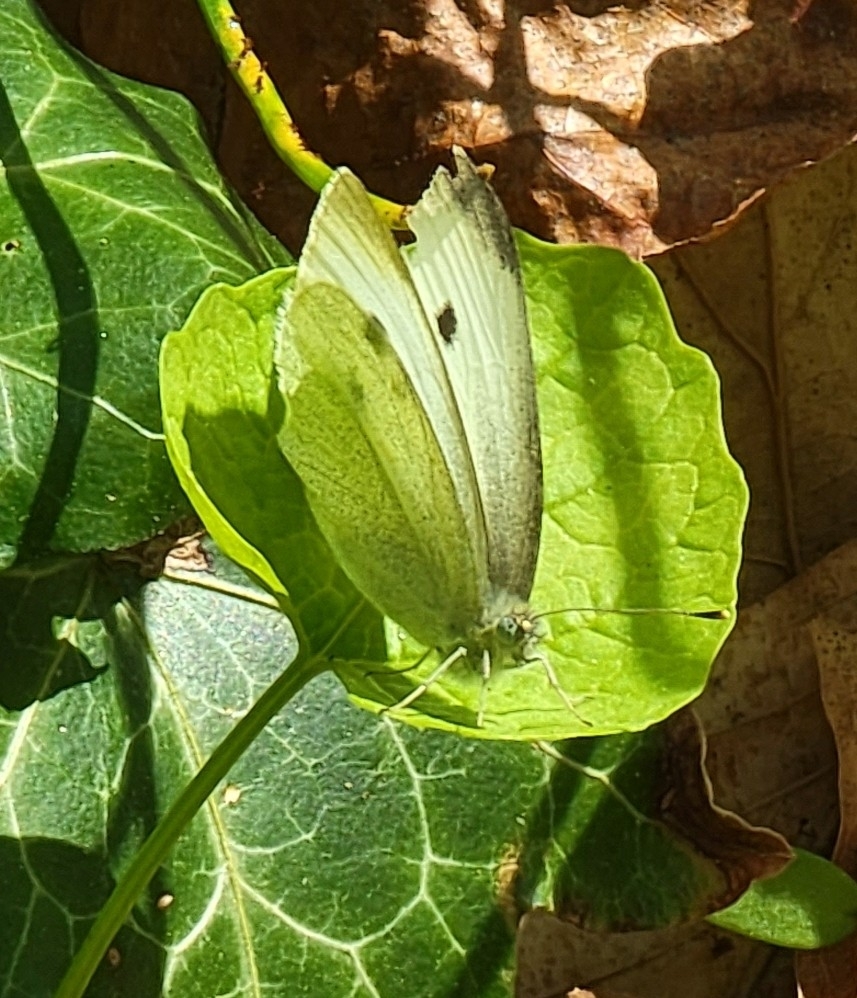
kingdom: Animalia
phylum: Arthropoda
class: Insecta
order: Lepidoptera
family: Pieridae
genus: Pieris
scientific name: Pieris rapae
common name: Small white
